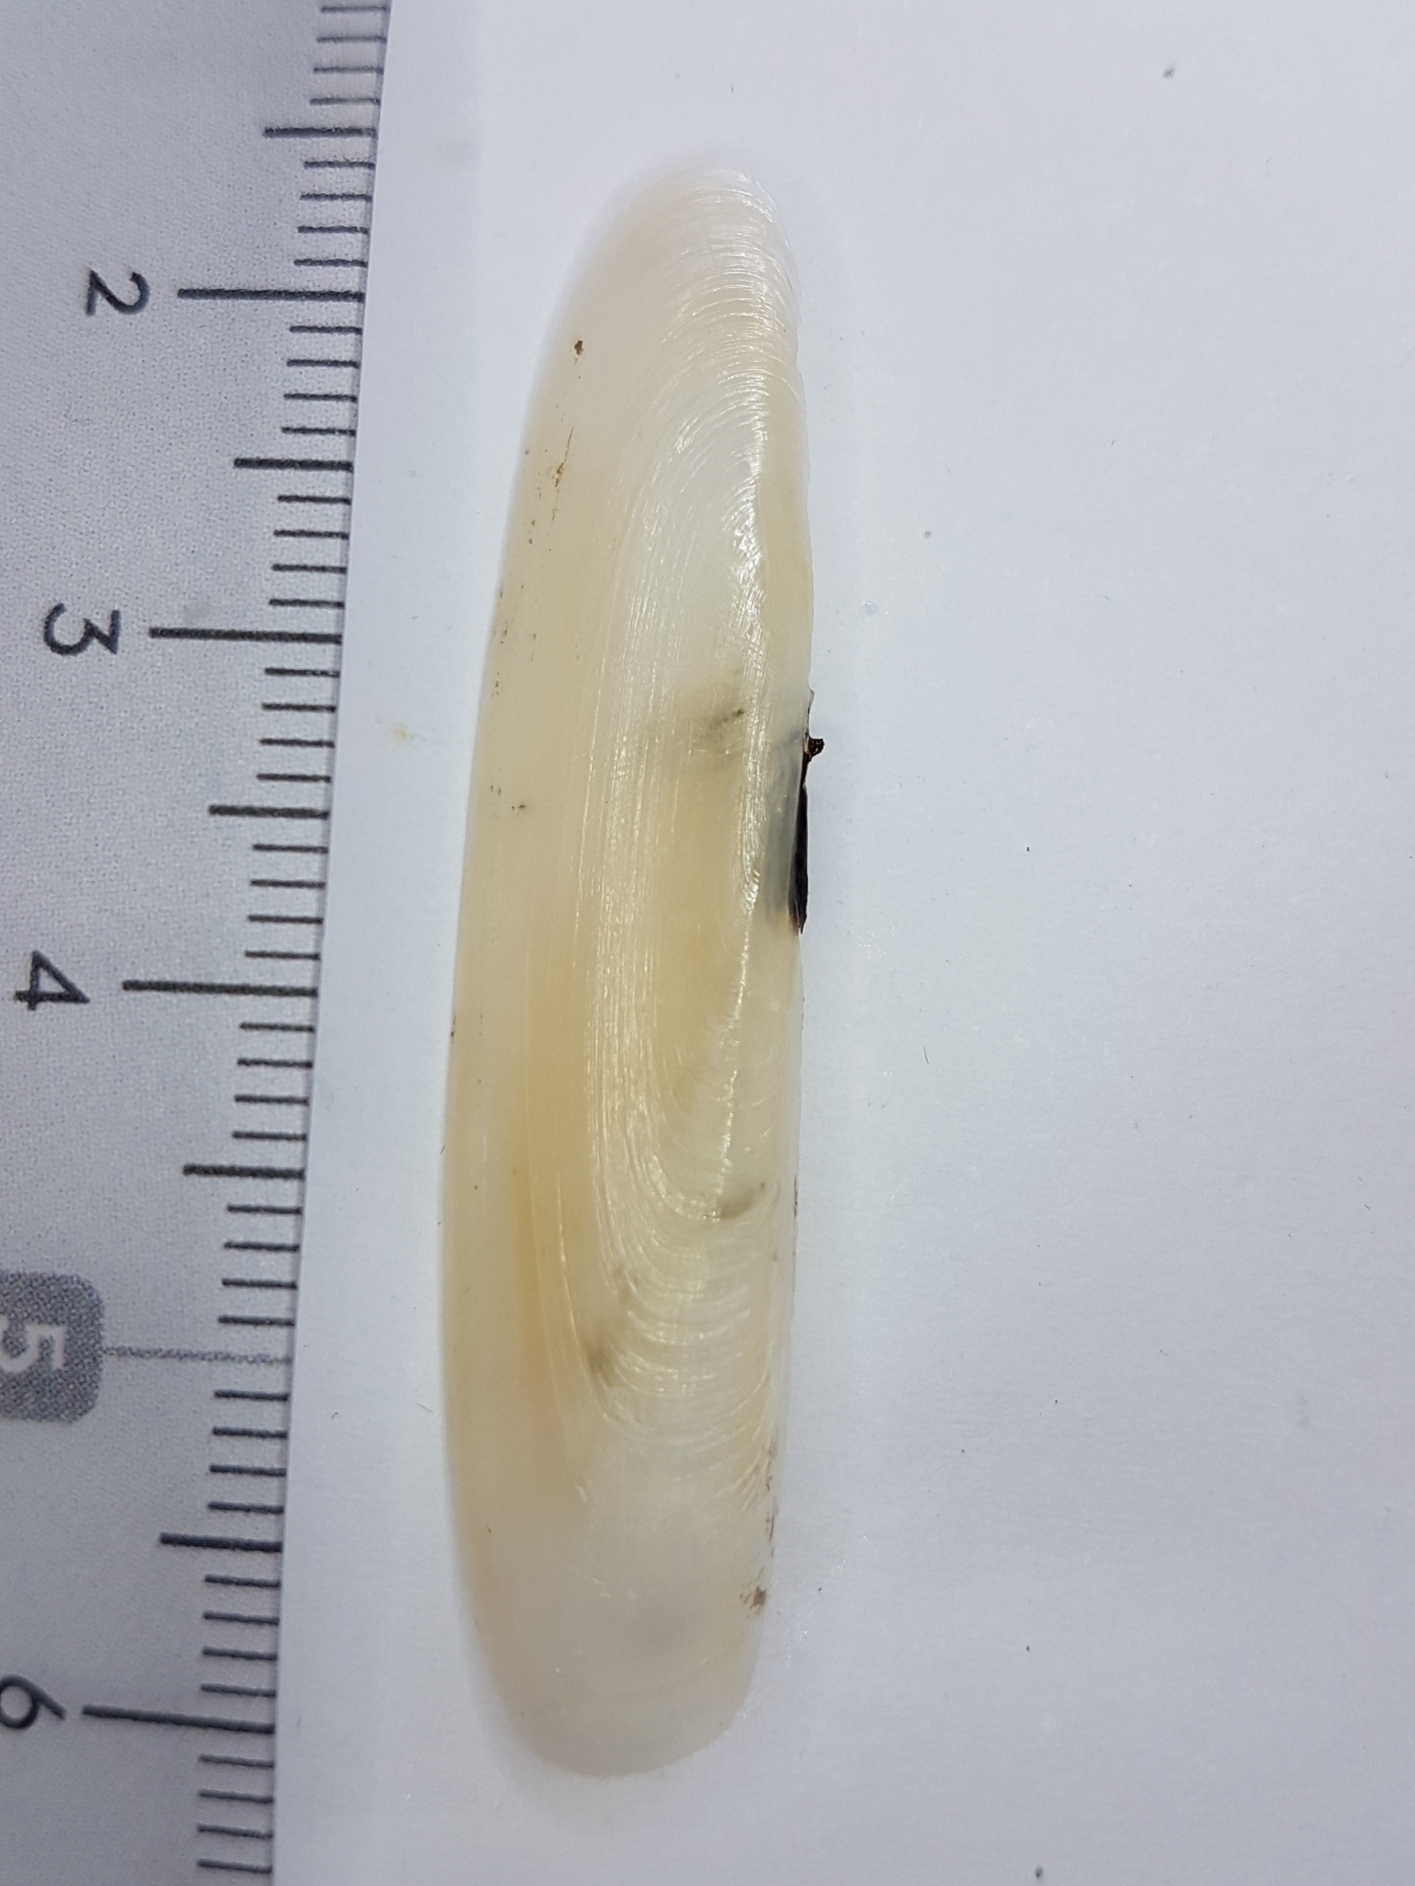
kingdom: Animalia
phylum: Mollusca
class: Bivalvia
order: Adapedonta
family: Pharidae
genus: Pharus
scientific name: Pharus legumen
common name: Bean razor clam
